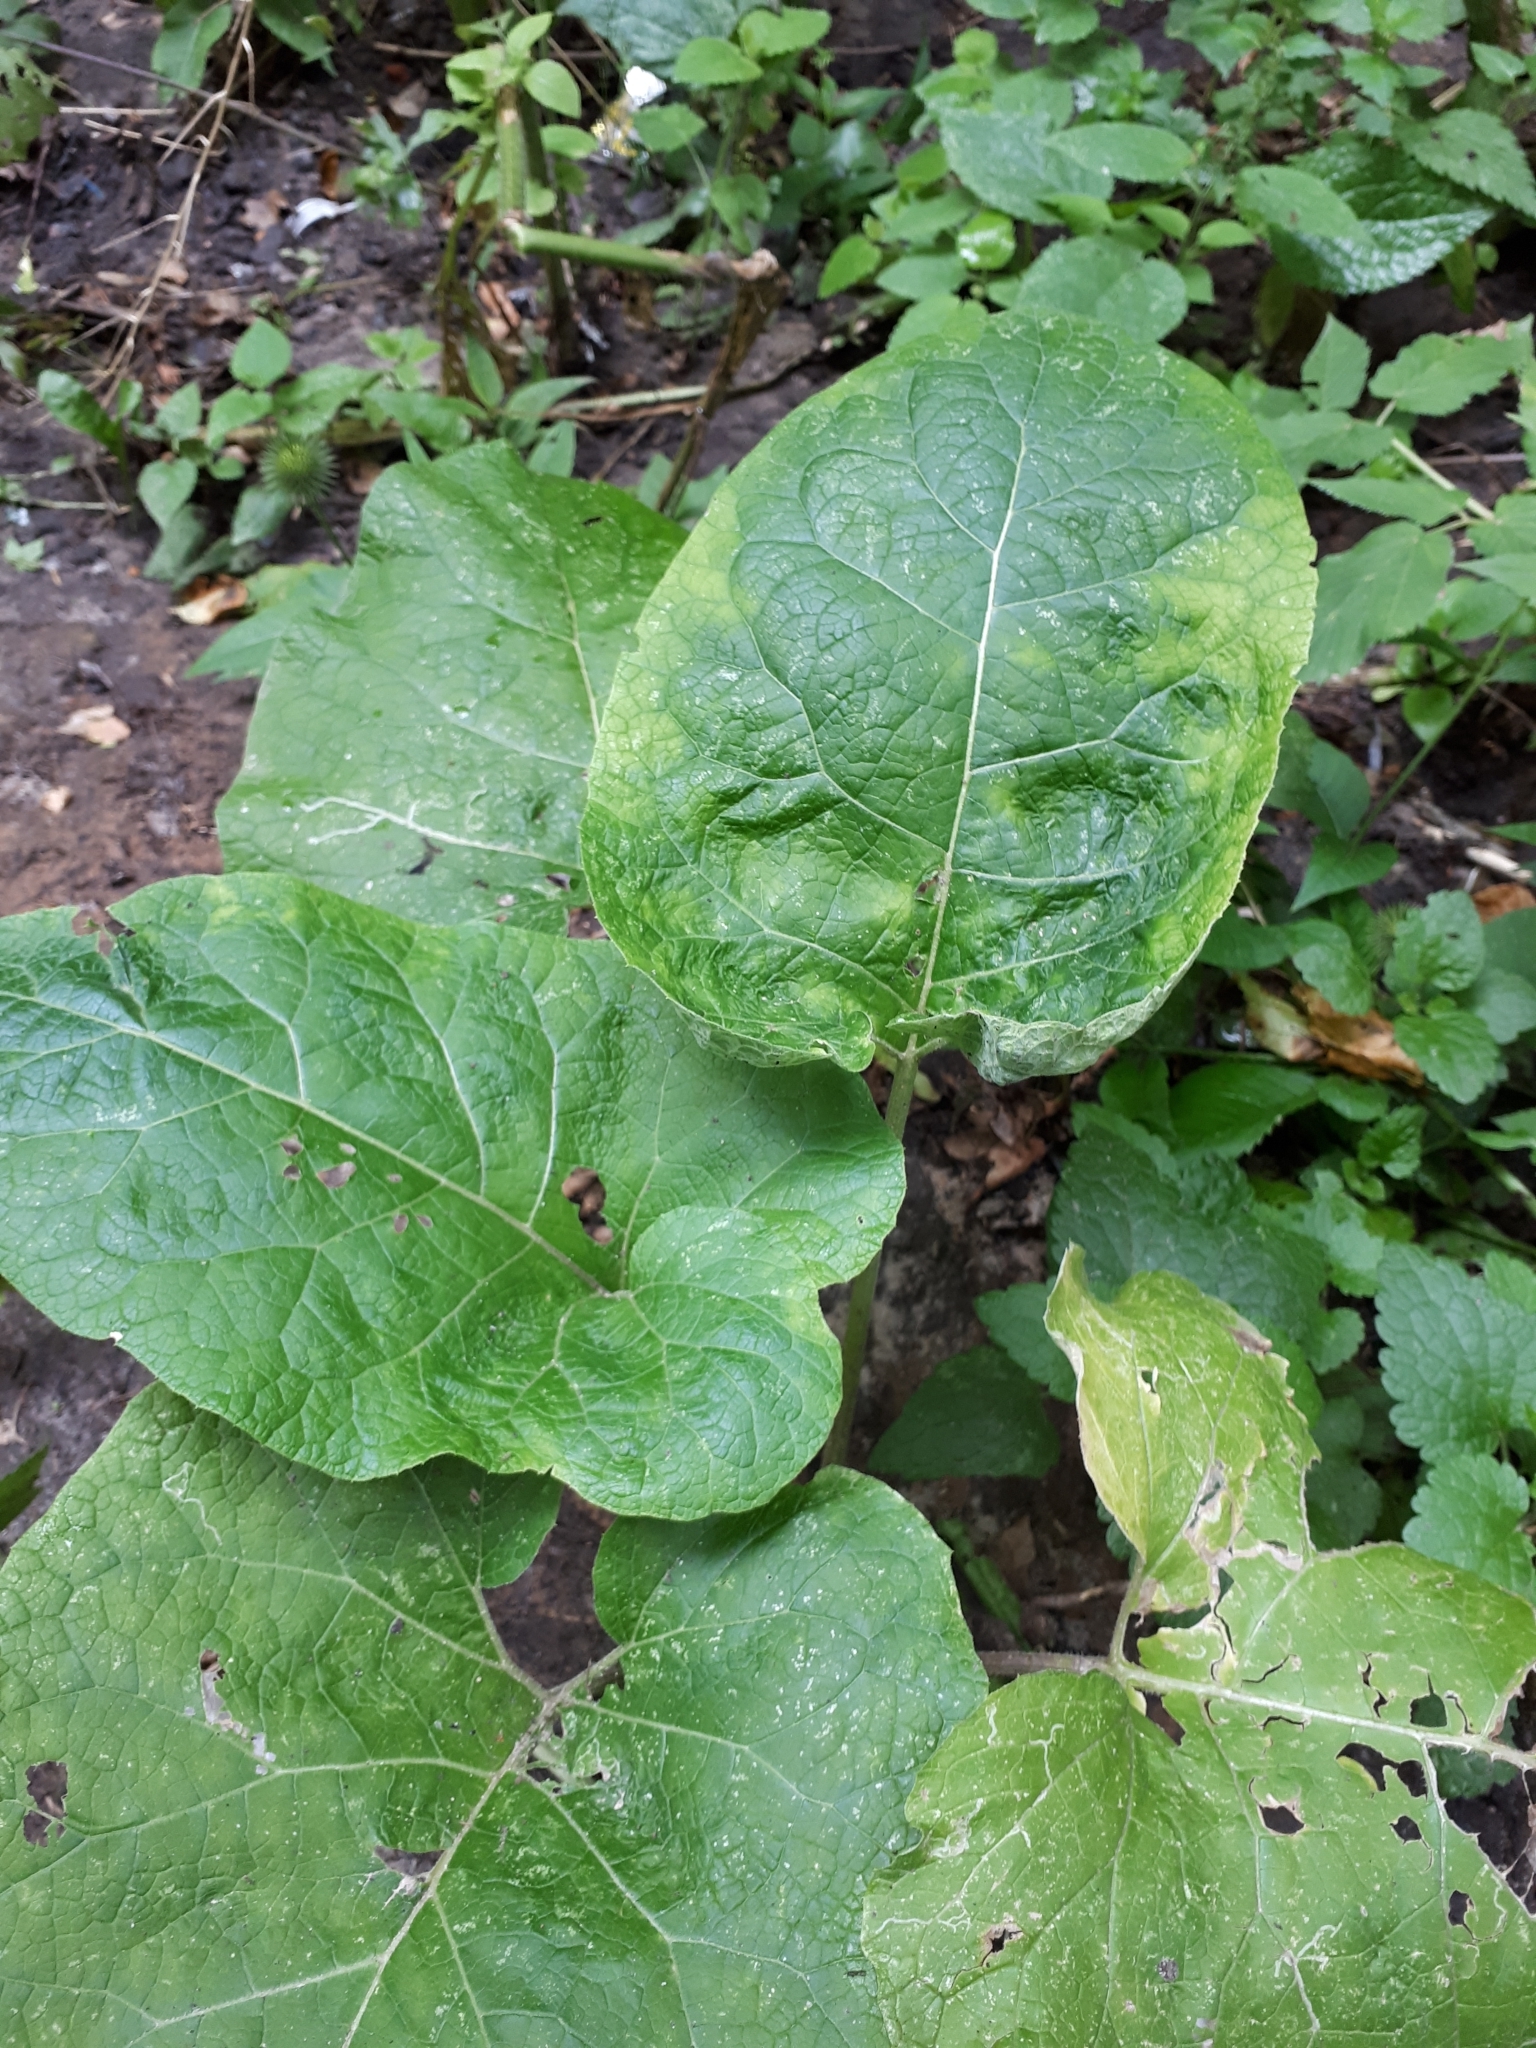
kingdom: Plantae
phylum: Tracheophyta
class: Magnoliopsida
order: Asterales
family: Asteraceae
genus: Arctium
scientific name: Arctium
